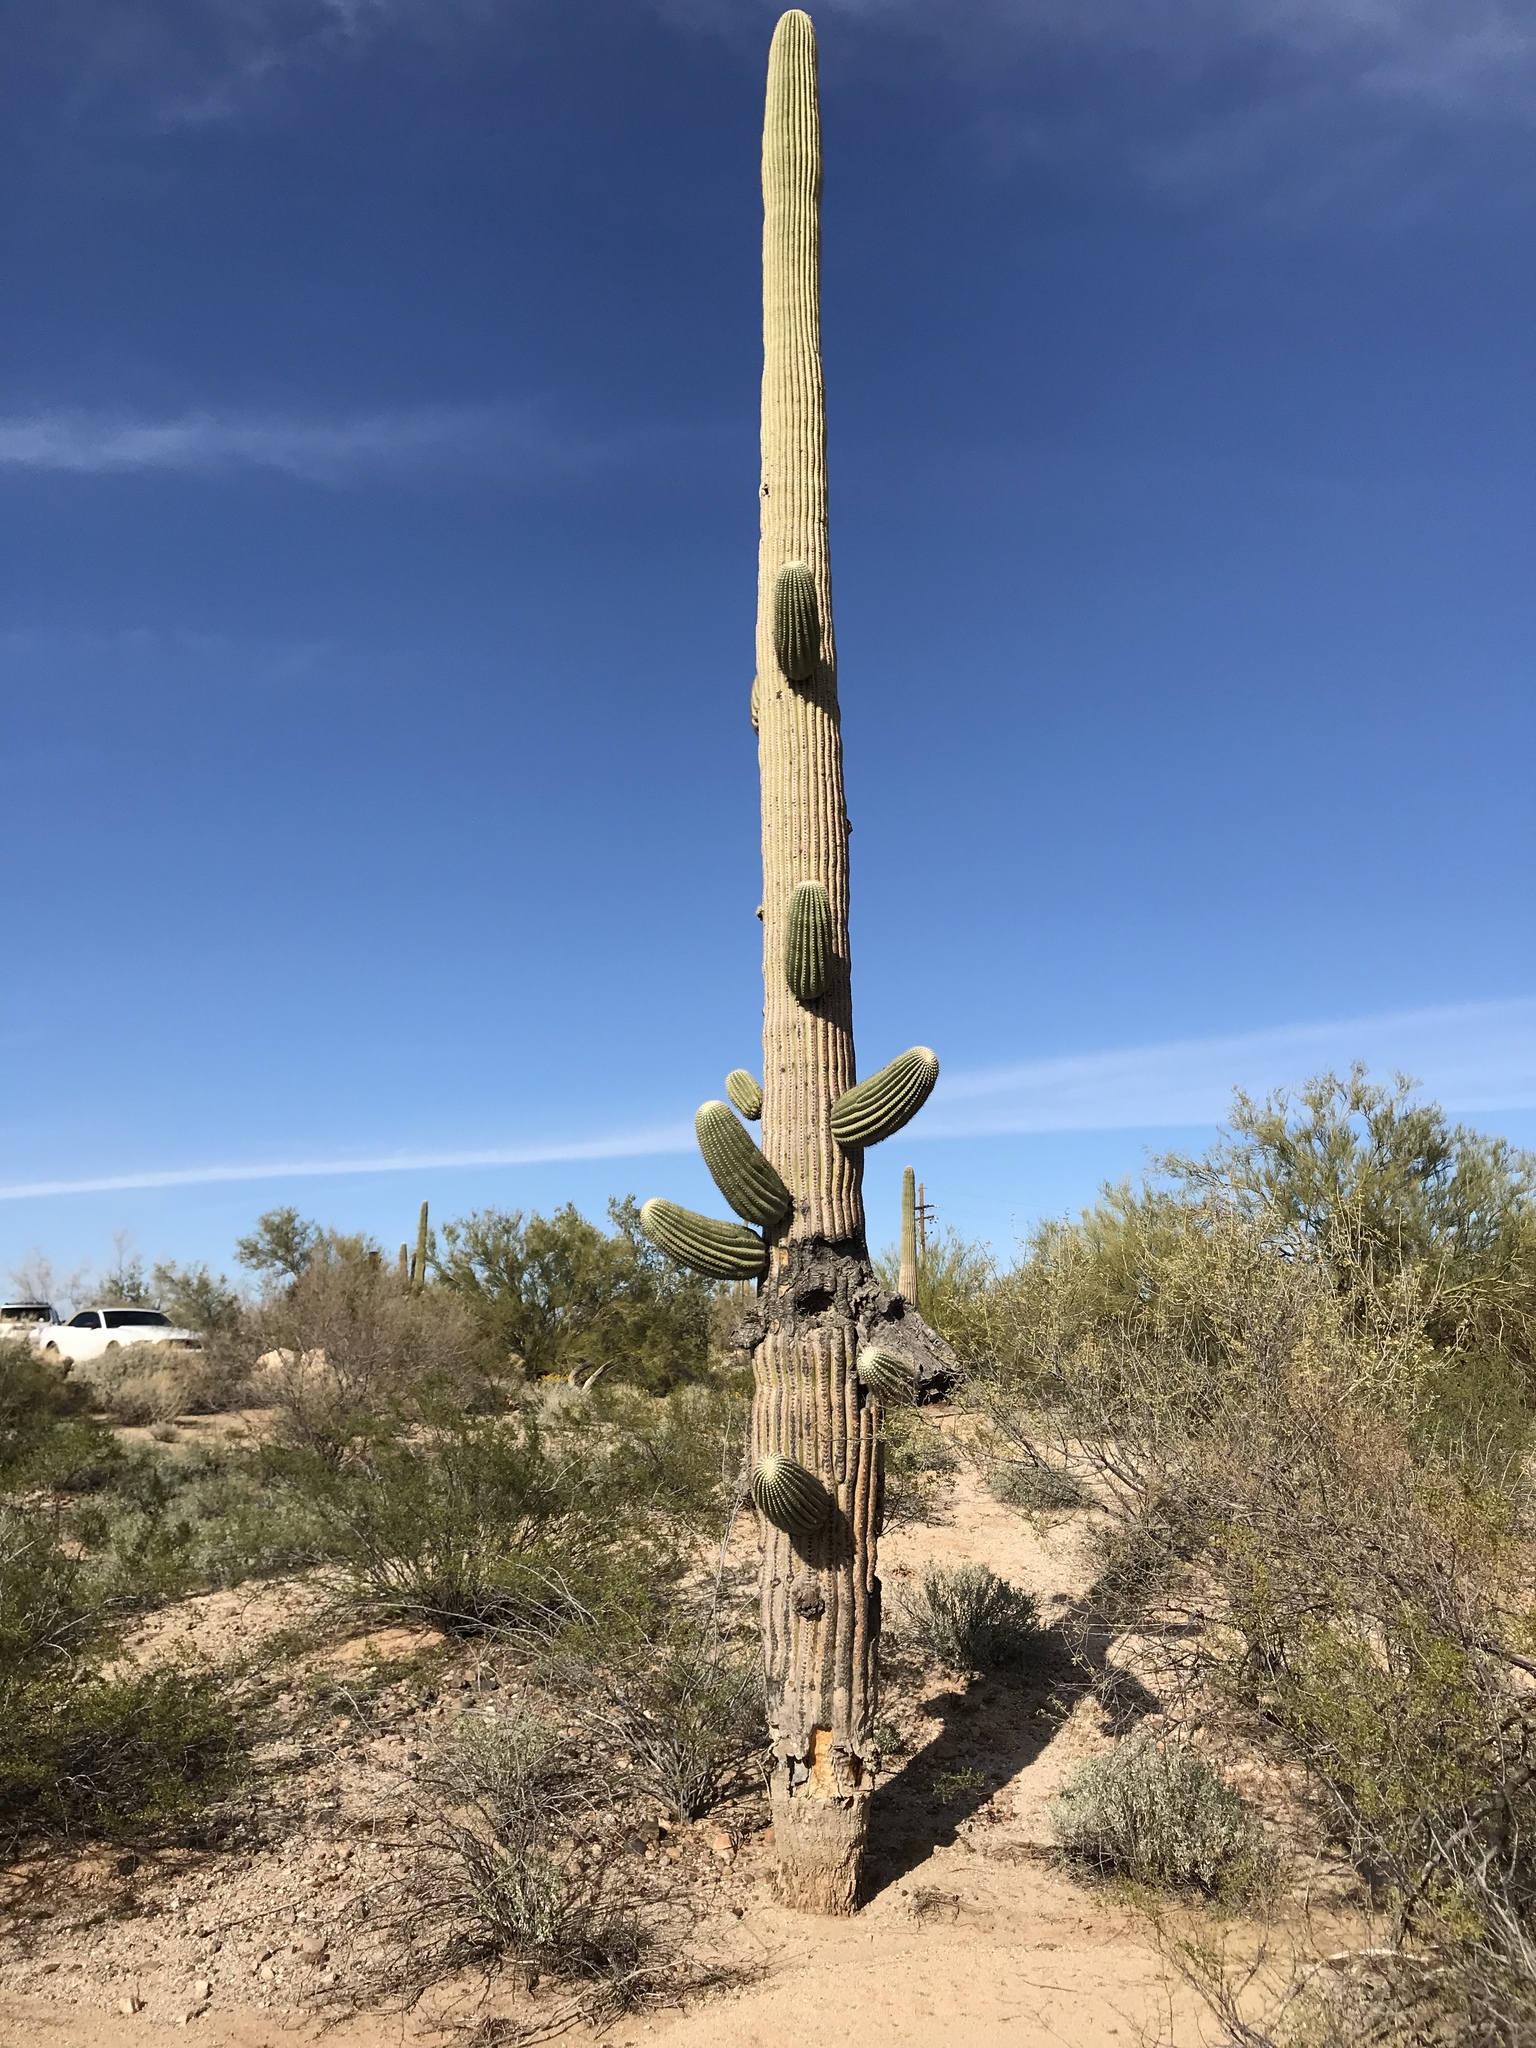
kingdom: Plantae
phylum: Tracheophyta
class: Magnoliopsida
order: Caryophyllales
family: Cactaceae
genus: Carnegiea
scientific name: Carnegiea gigantea
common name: Saguaro
